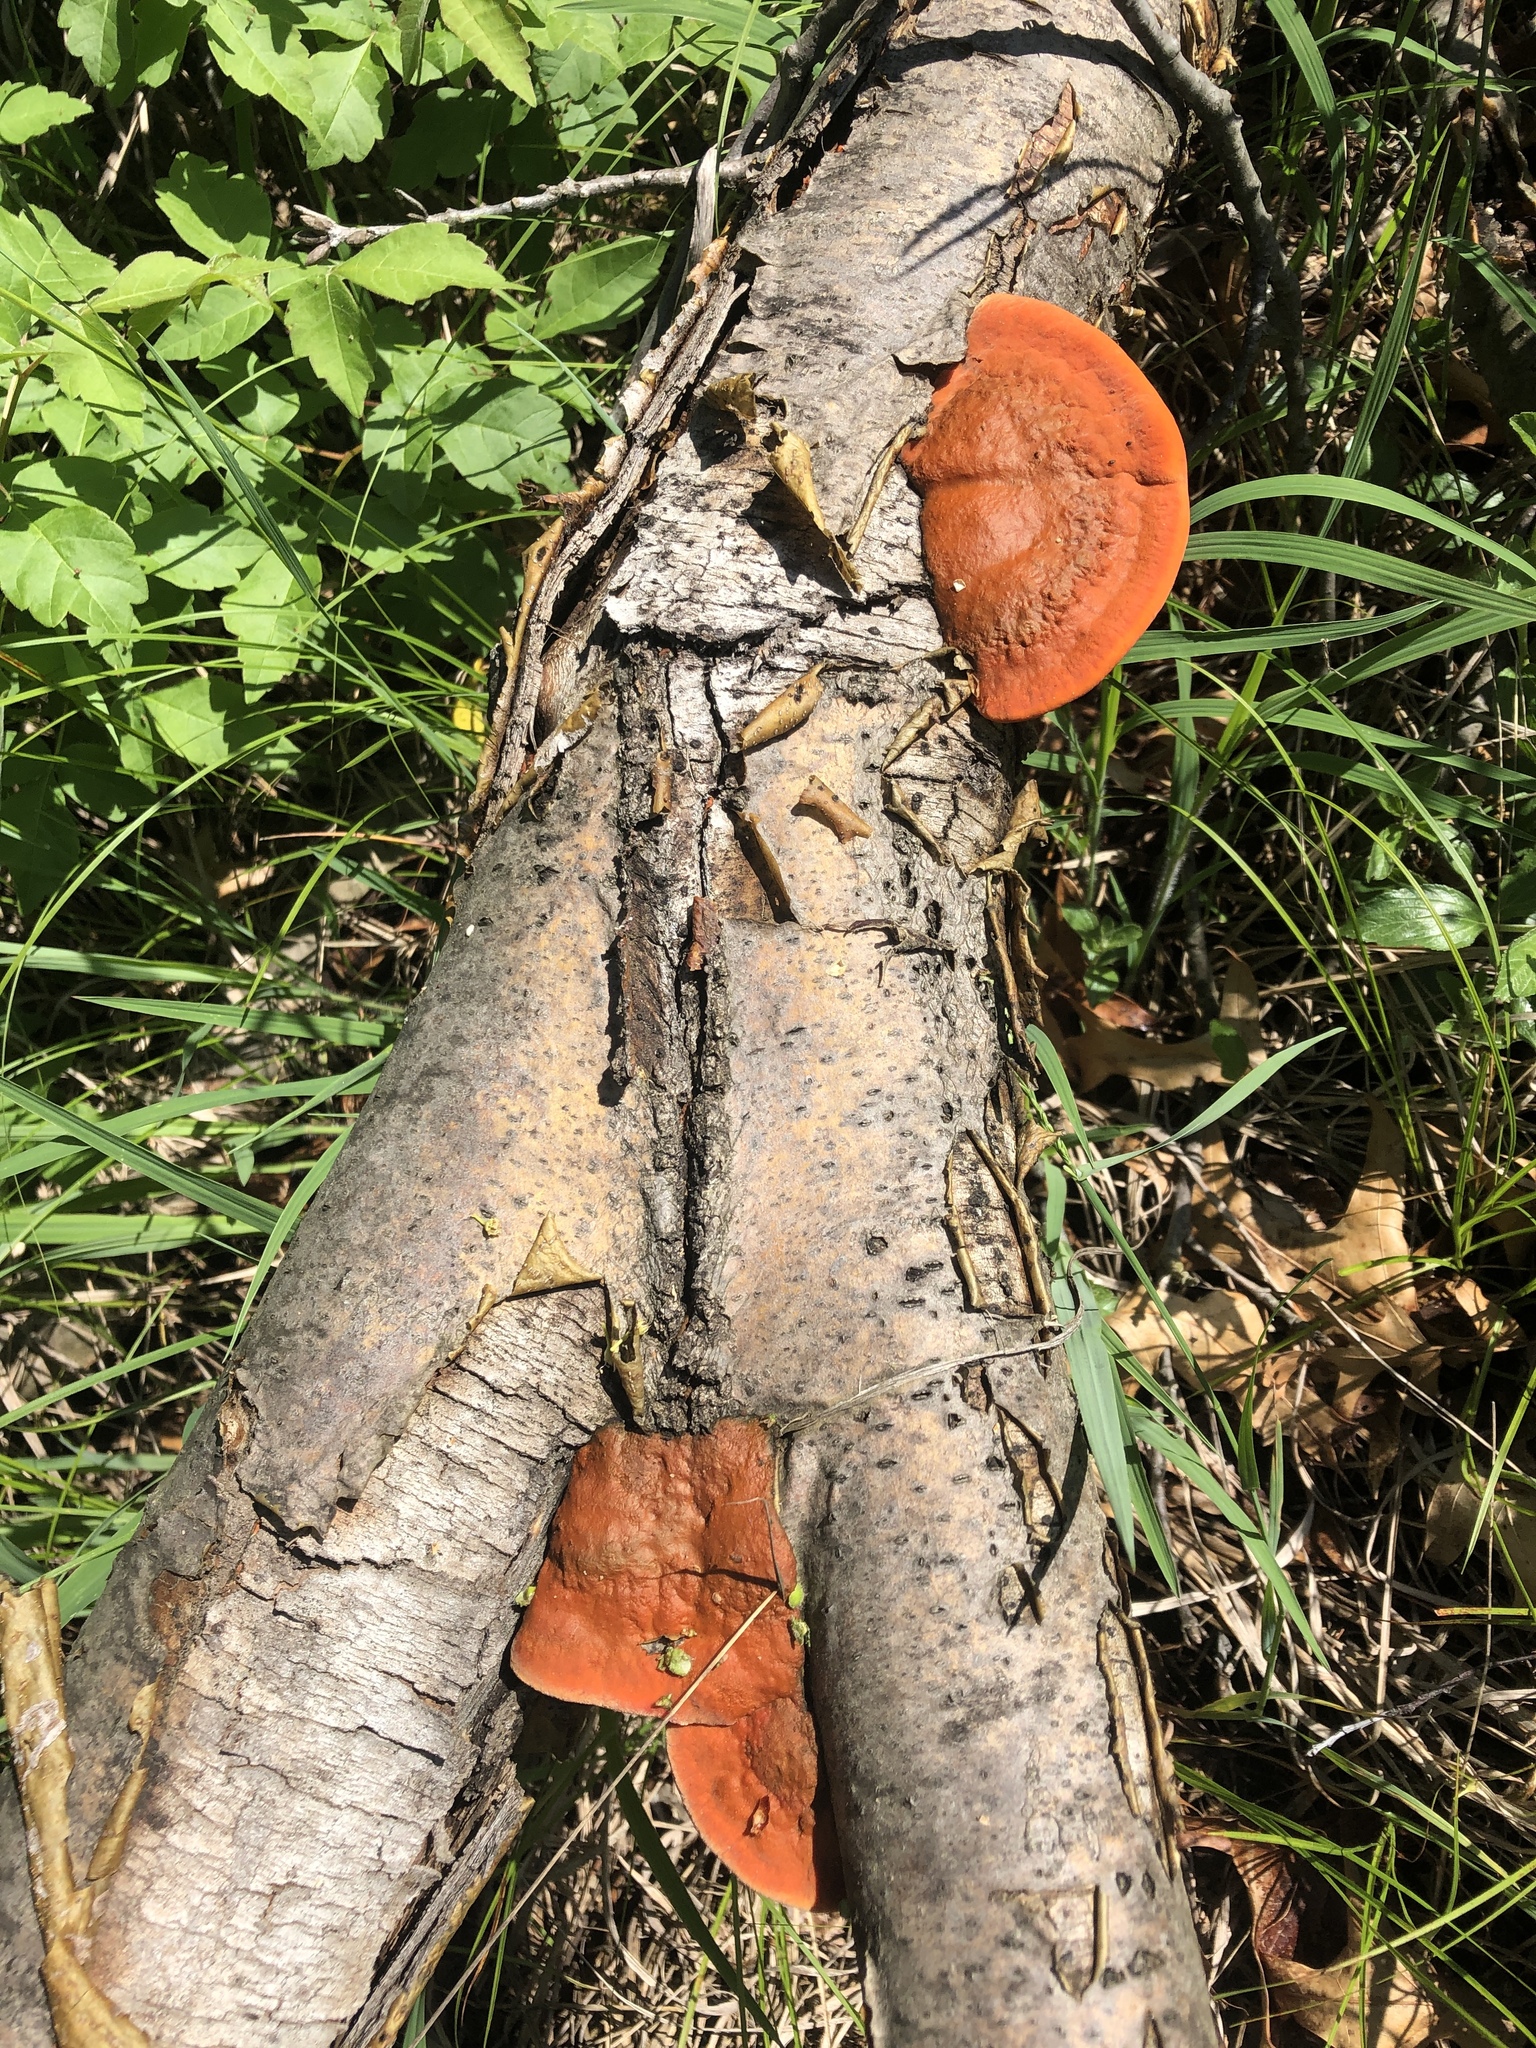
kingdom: Fungi
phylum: Basidiomycota
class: Agaricomycetes
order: Polyporales
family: Polyporaceae
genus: Trametes
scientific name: Trametes cinnabarina
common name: Northern cinnabar polypore
